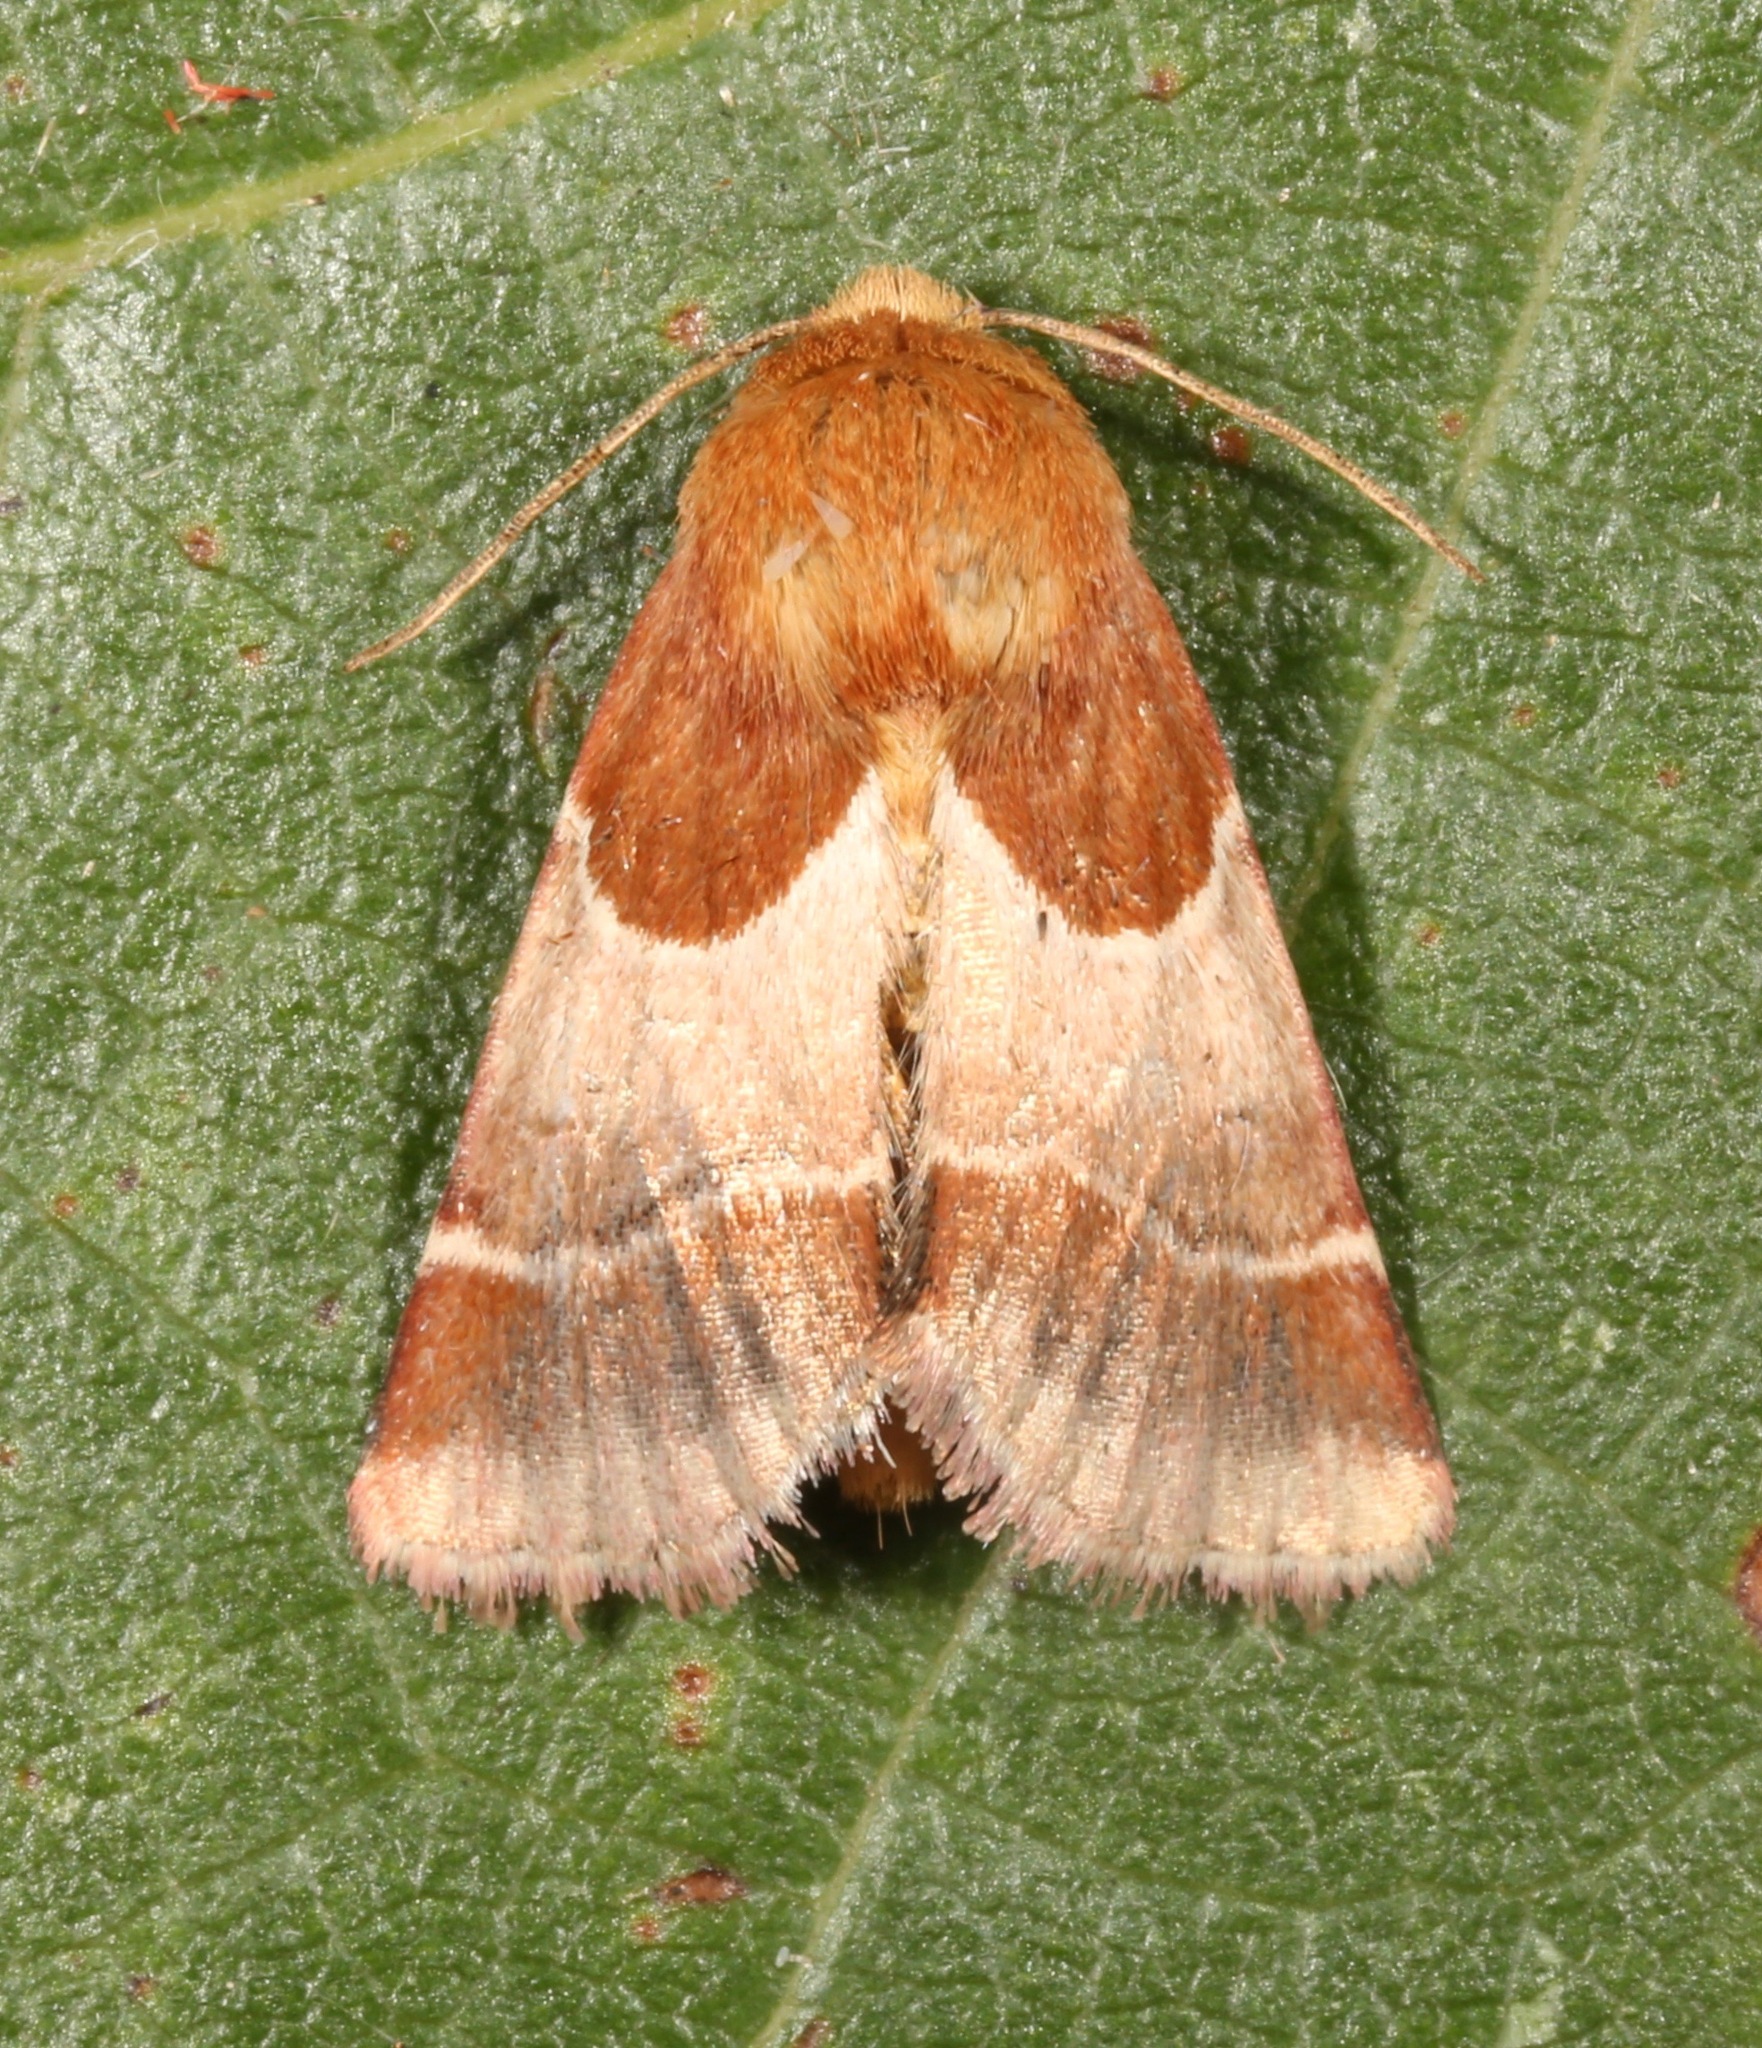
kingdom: Animalia
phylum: Arthropoda
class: Insecta
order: Lepidoptera
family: Noctuidae
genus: Schinia
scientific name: Schinia arcigera
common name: Arcigera flower moth
